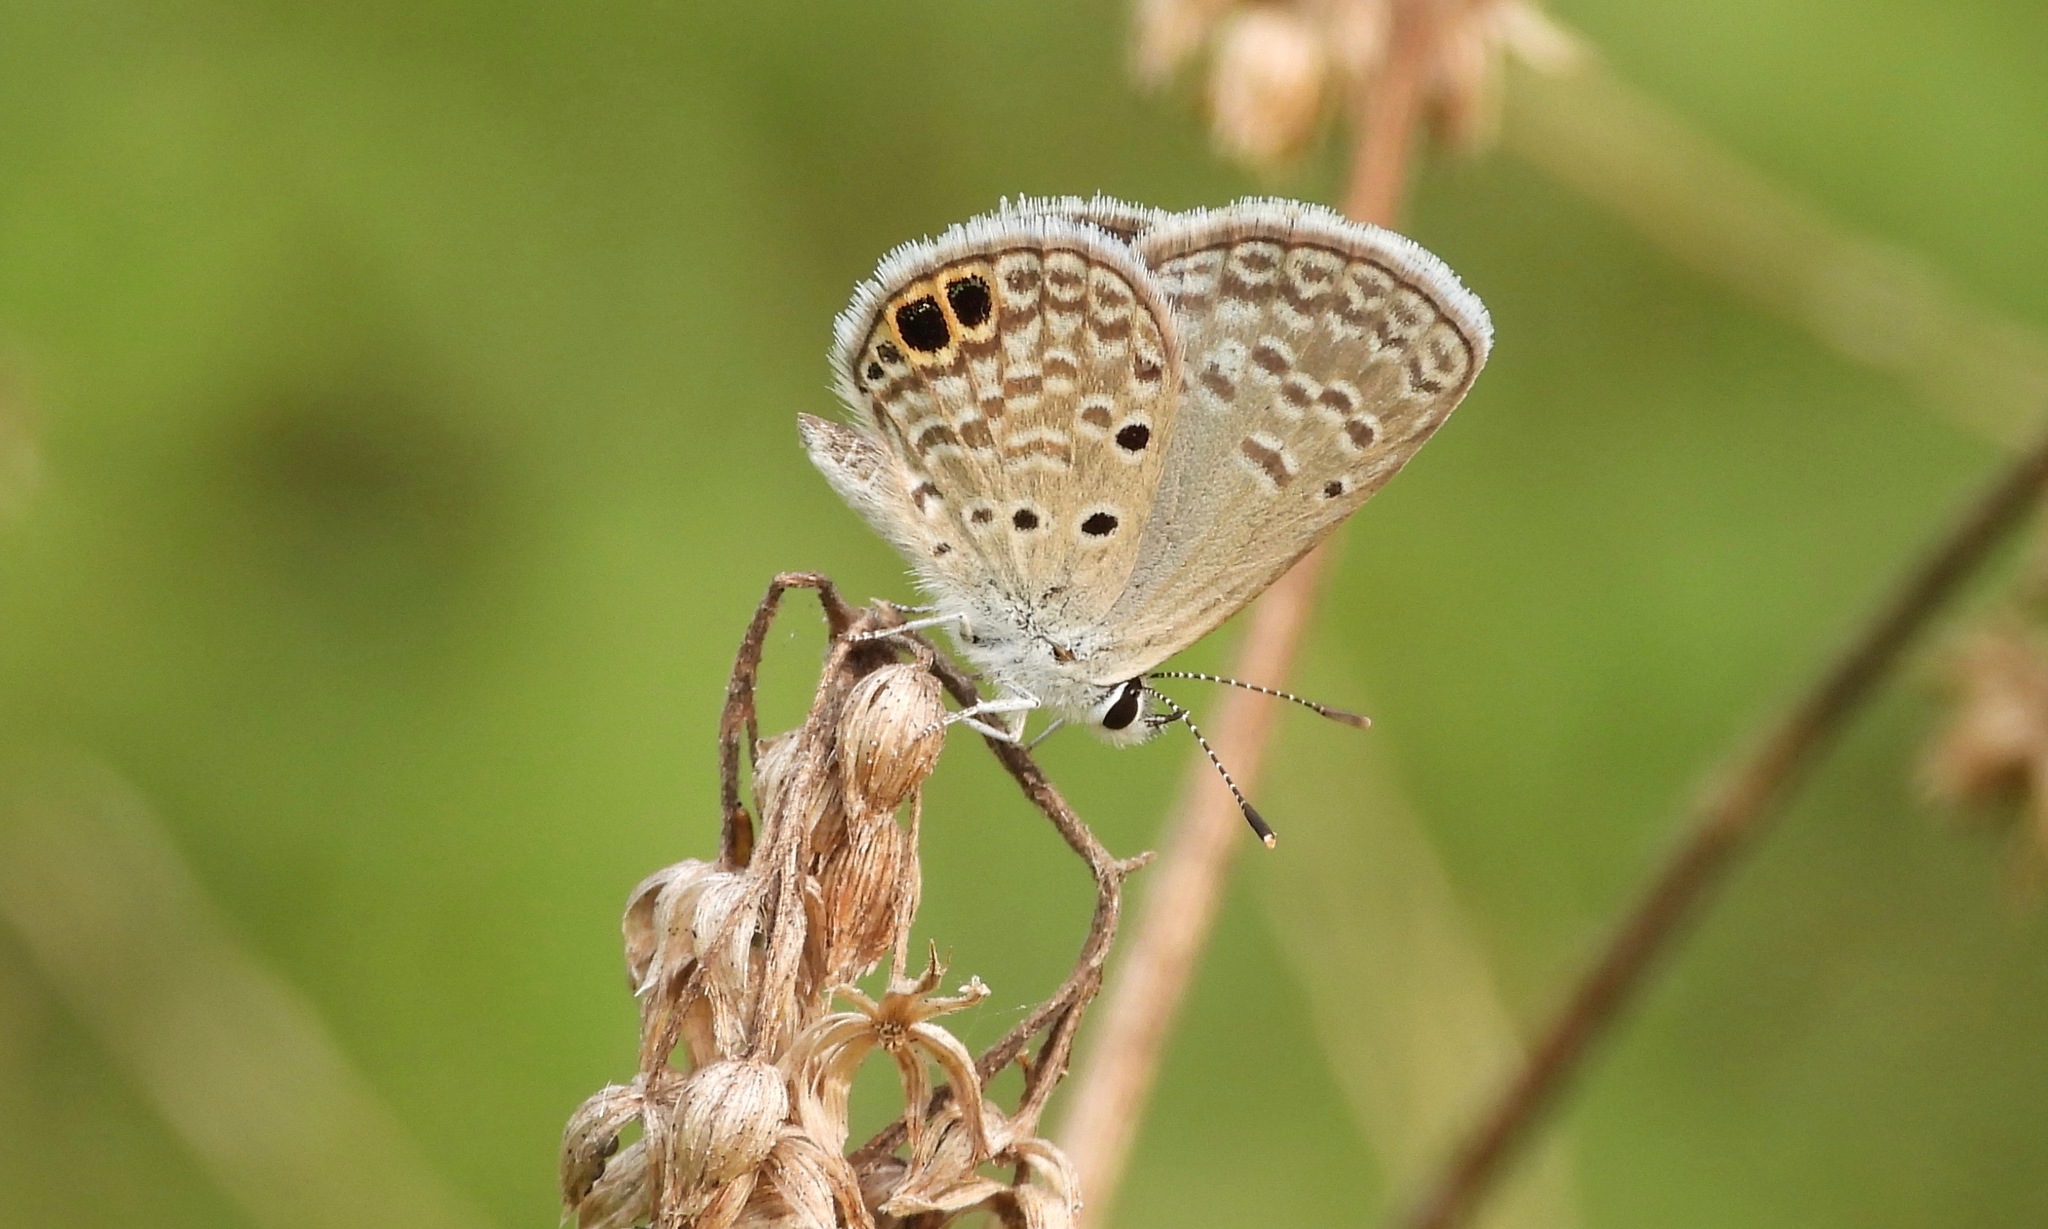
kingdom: Animalia
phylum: Arthropoda
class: Insecta
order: Lepidoptera
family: Lycaenidae
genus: Hemiargus
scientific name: Hemiargus ceraunus
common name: Ceraunus blue
